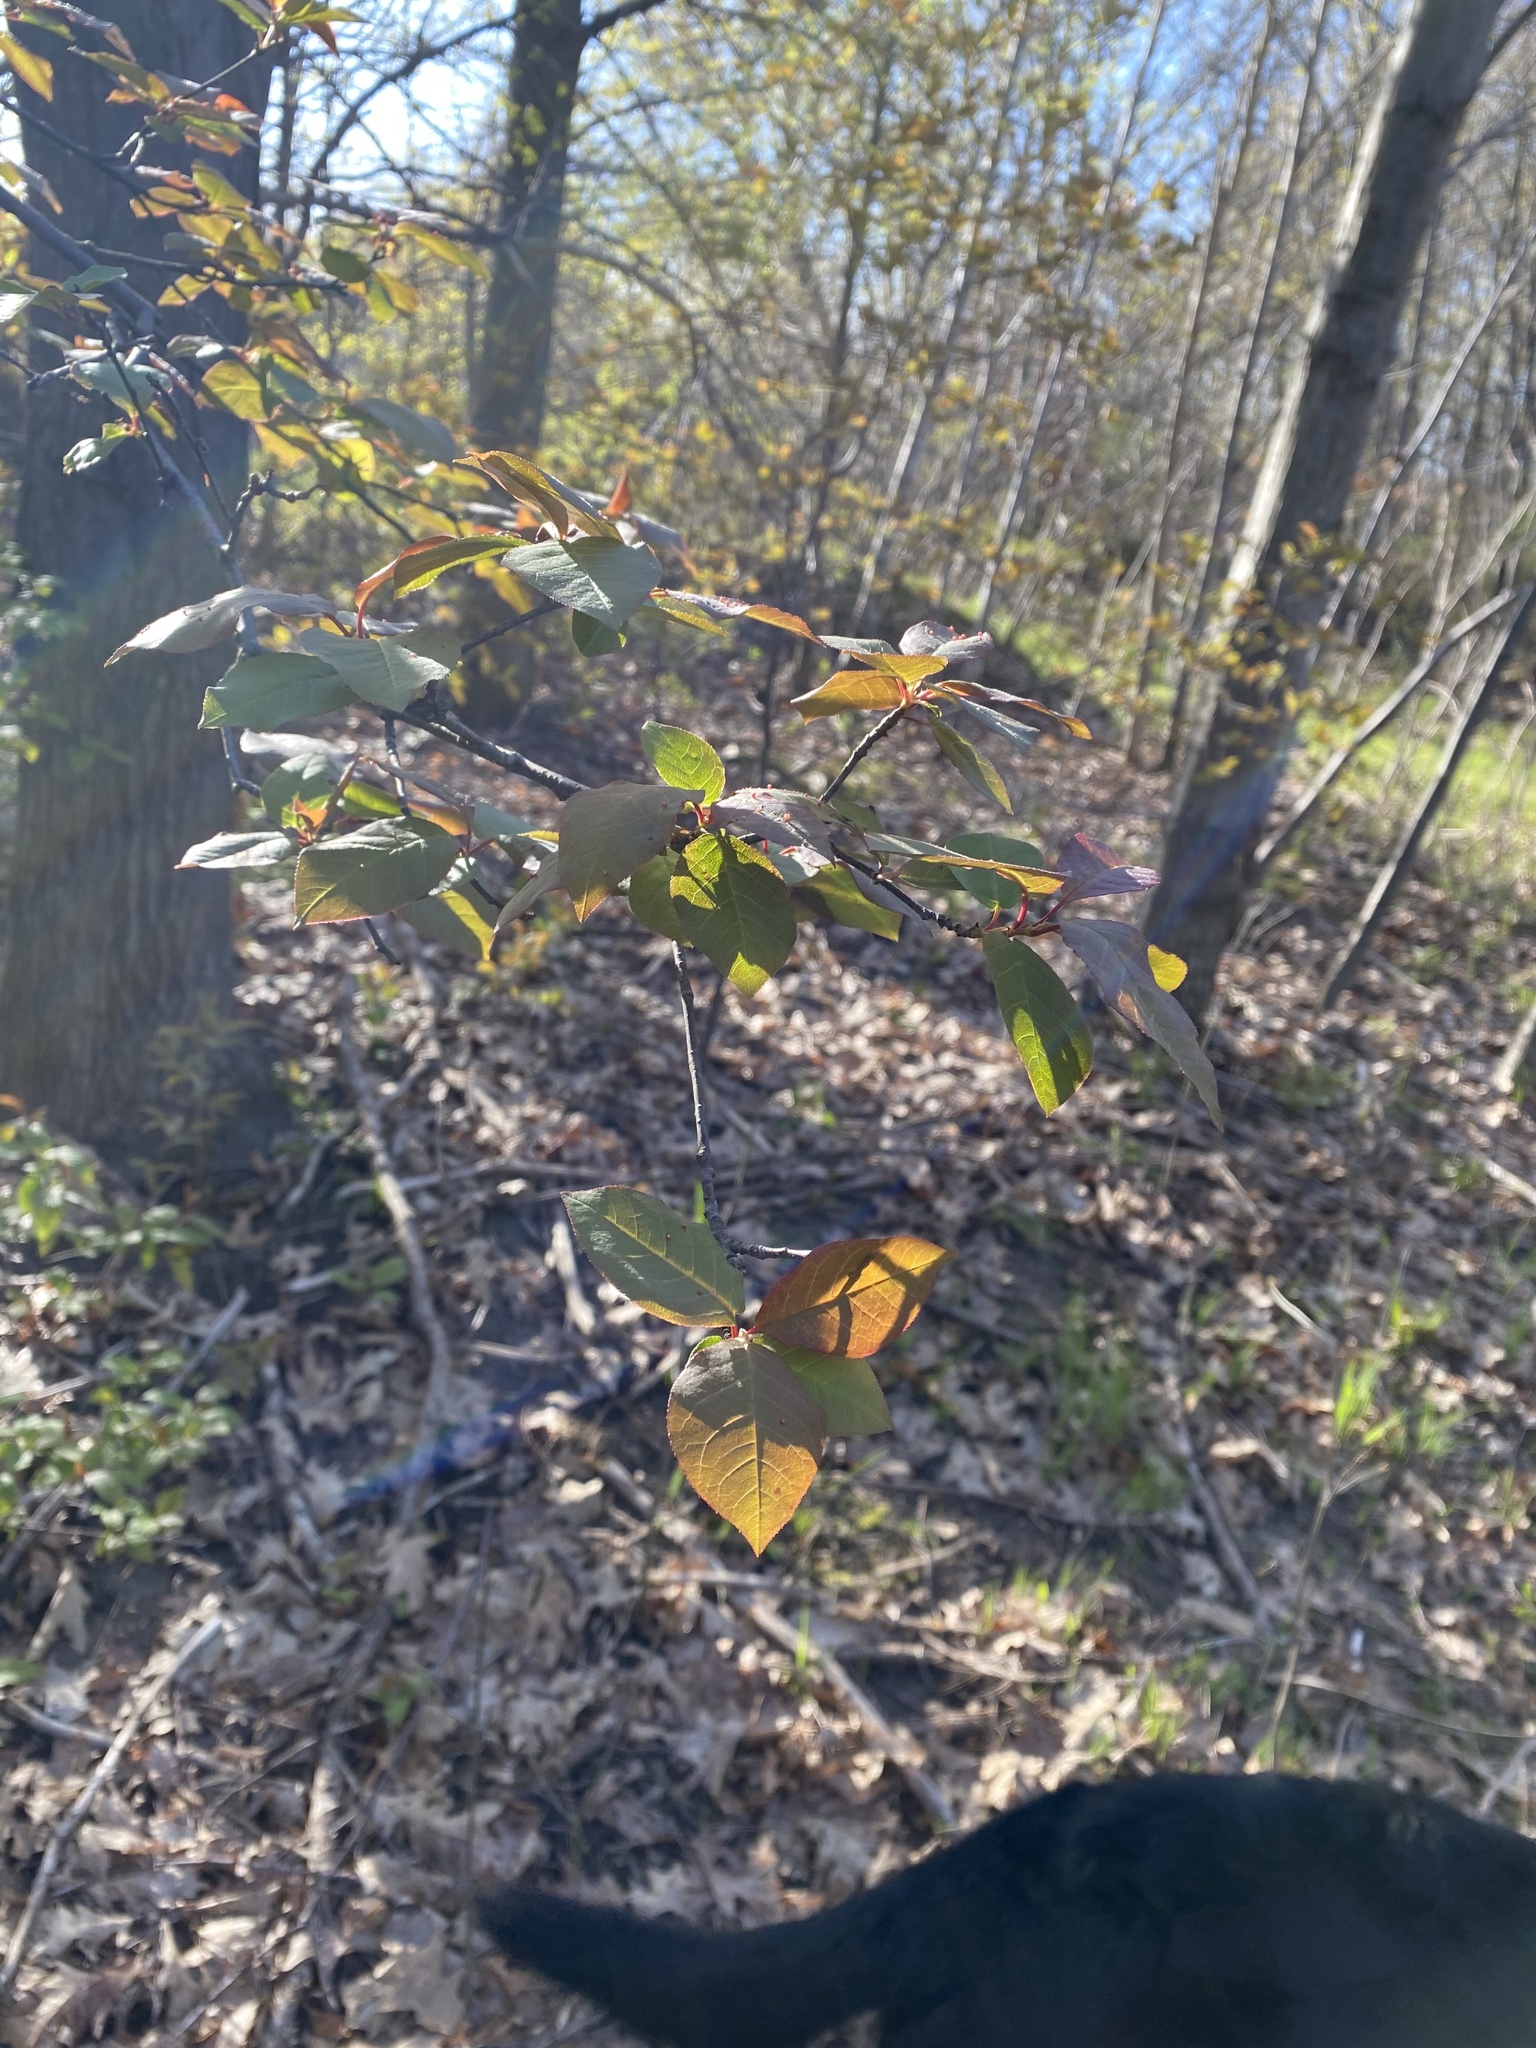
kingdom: Plantae
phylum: Tracheophyta
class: Magnoliopsida
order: Rosales
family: Rosaceae
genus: Prunus
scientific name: Prunus virginiana
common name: Chokecherry
